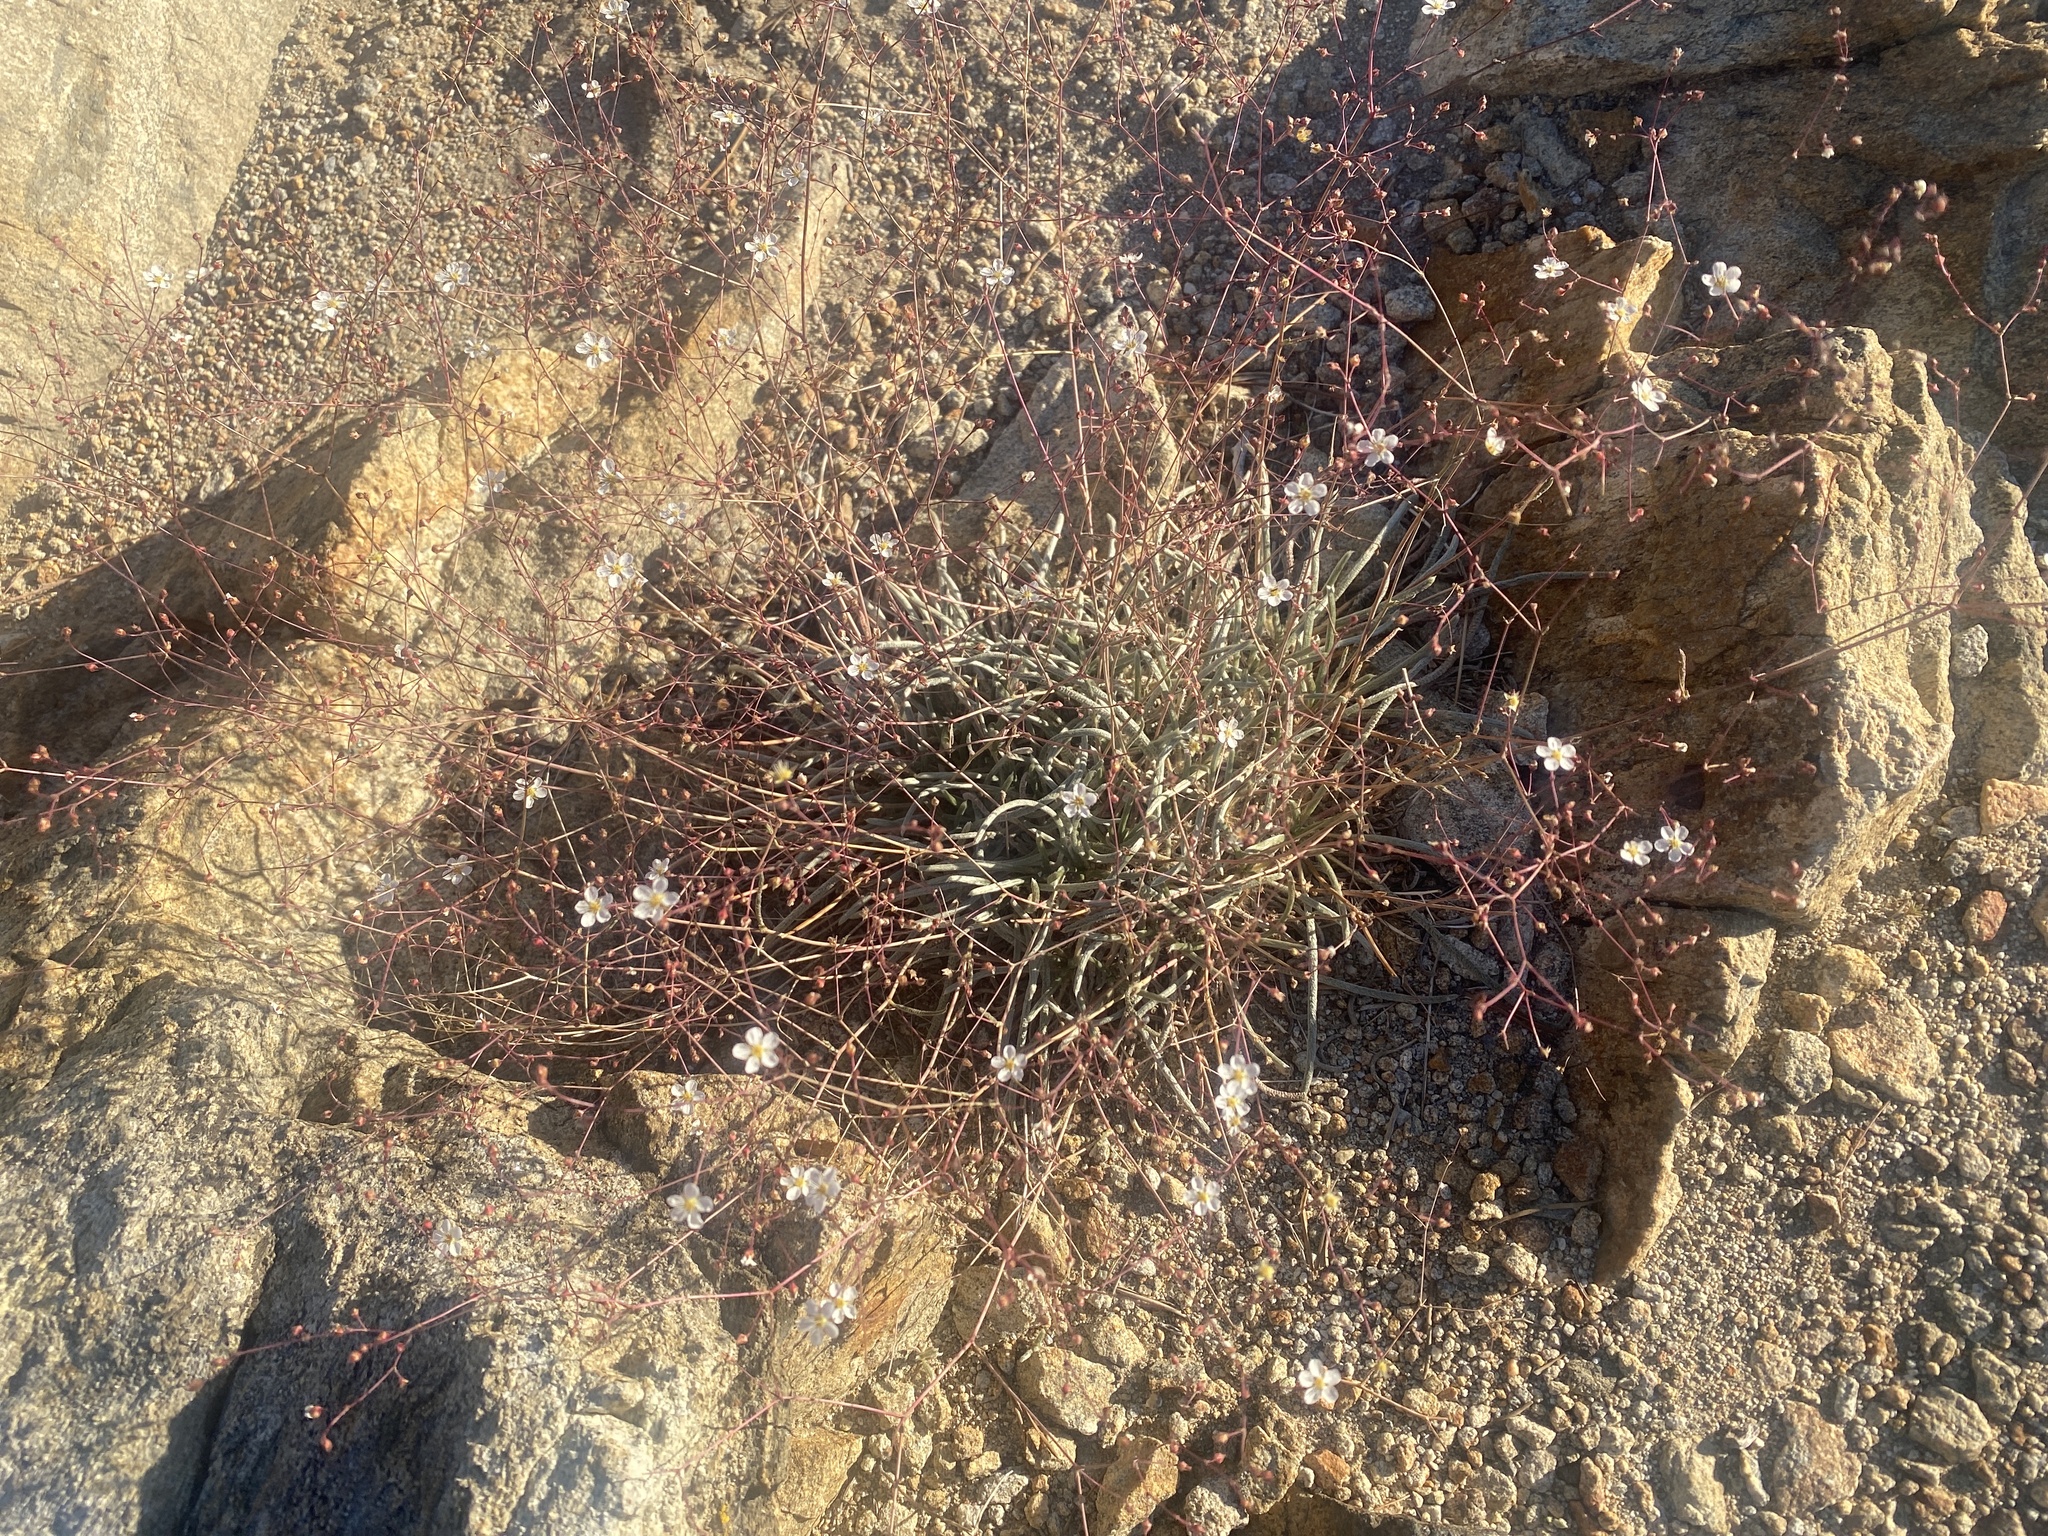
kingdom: Plantae
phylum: Tracheophyta
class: Magnoliopsida
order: Rosales
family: Rosaceae
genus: Potentilla
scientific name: Potentilla santolinoides
